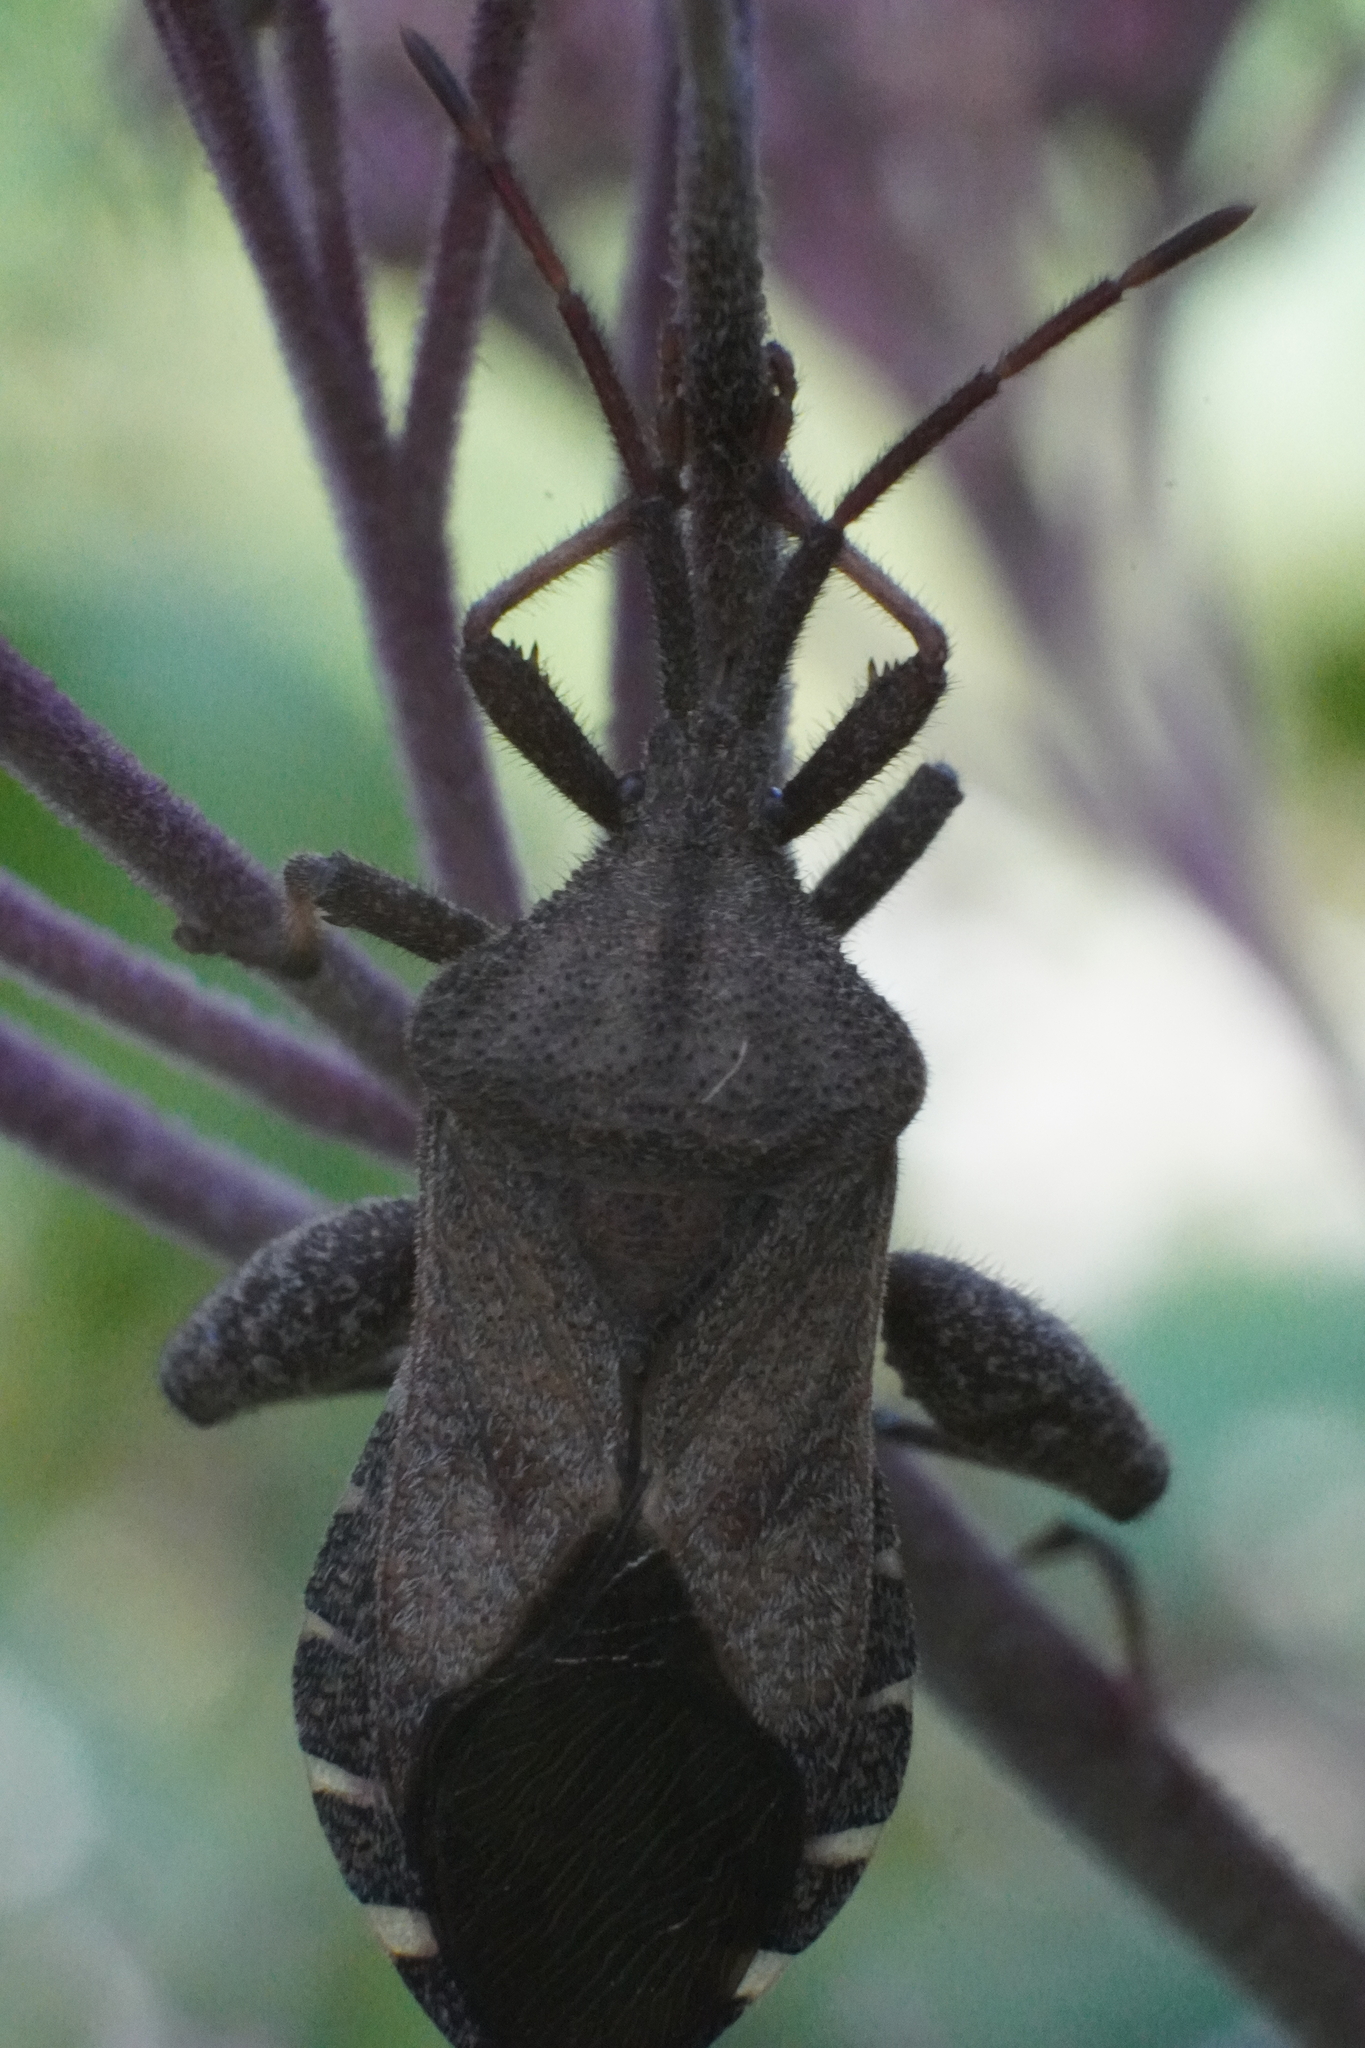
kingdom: Animalia
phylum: Arthropoda
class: Insecta
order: Hemiptera
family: Coreidae
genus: Piezogaster
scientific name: Piezogaster calcarator
